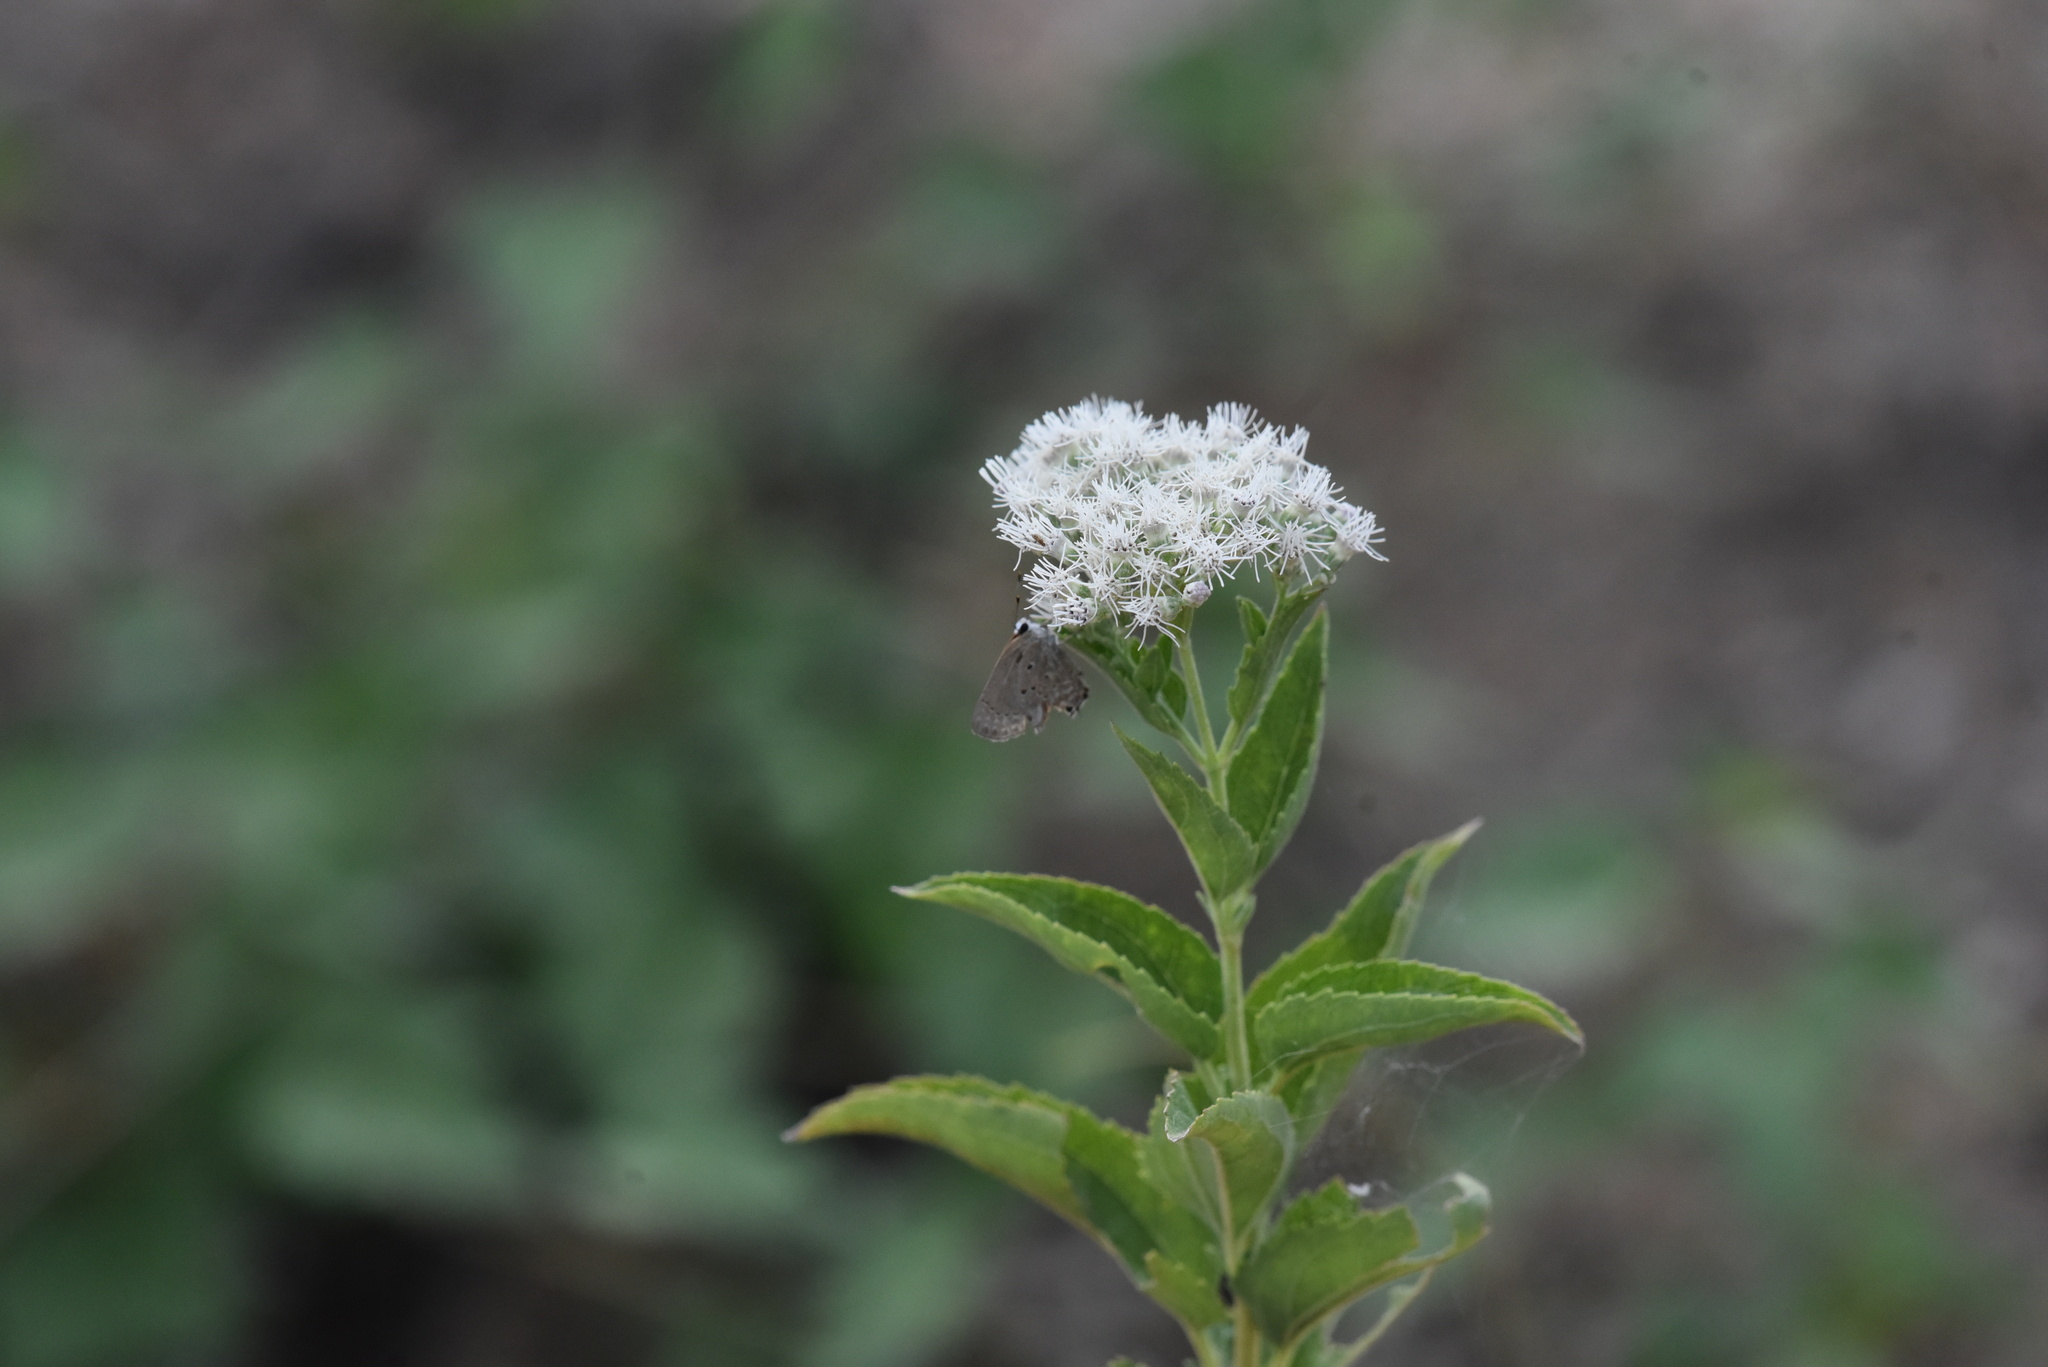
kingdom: Animalia
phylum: Arthropoda
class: Insecta
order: Lepidoptera
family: Lycaenidae
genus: Callicista
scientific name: Callicista columella
